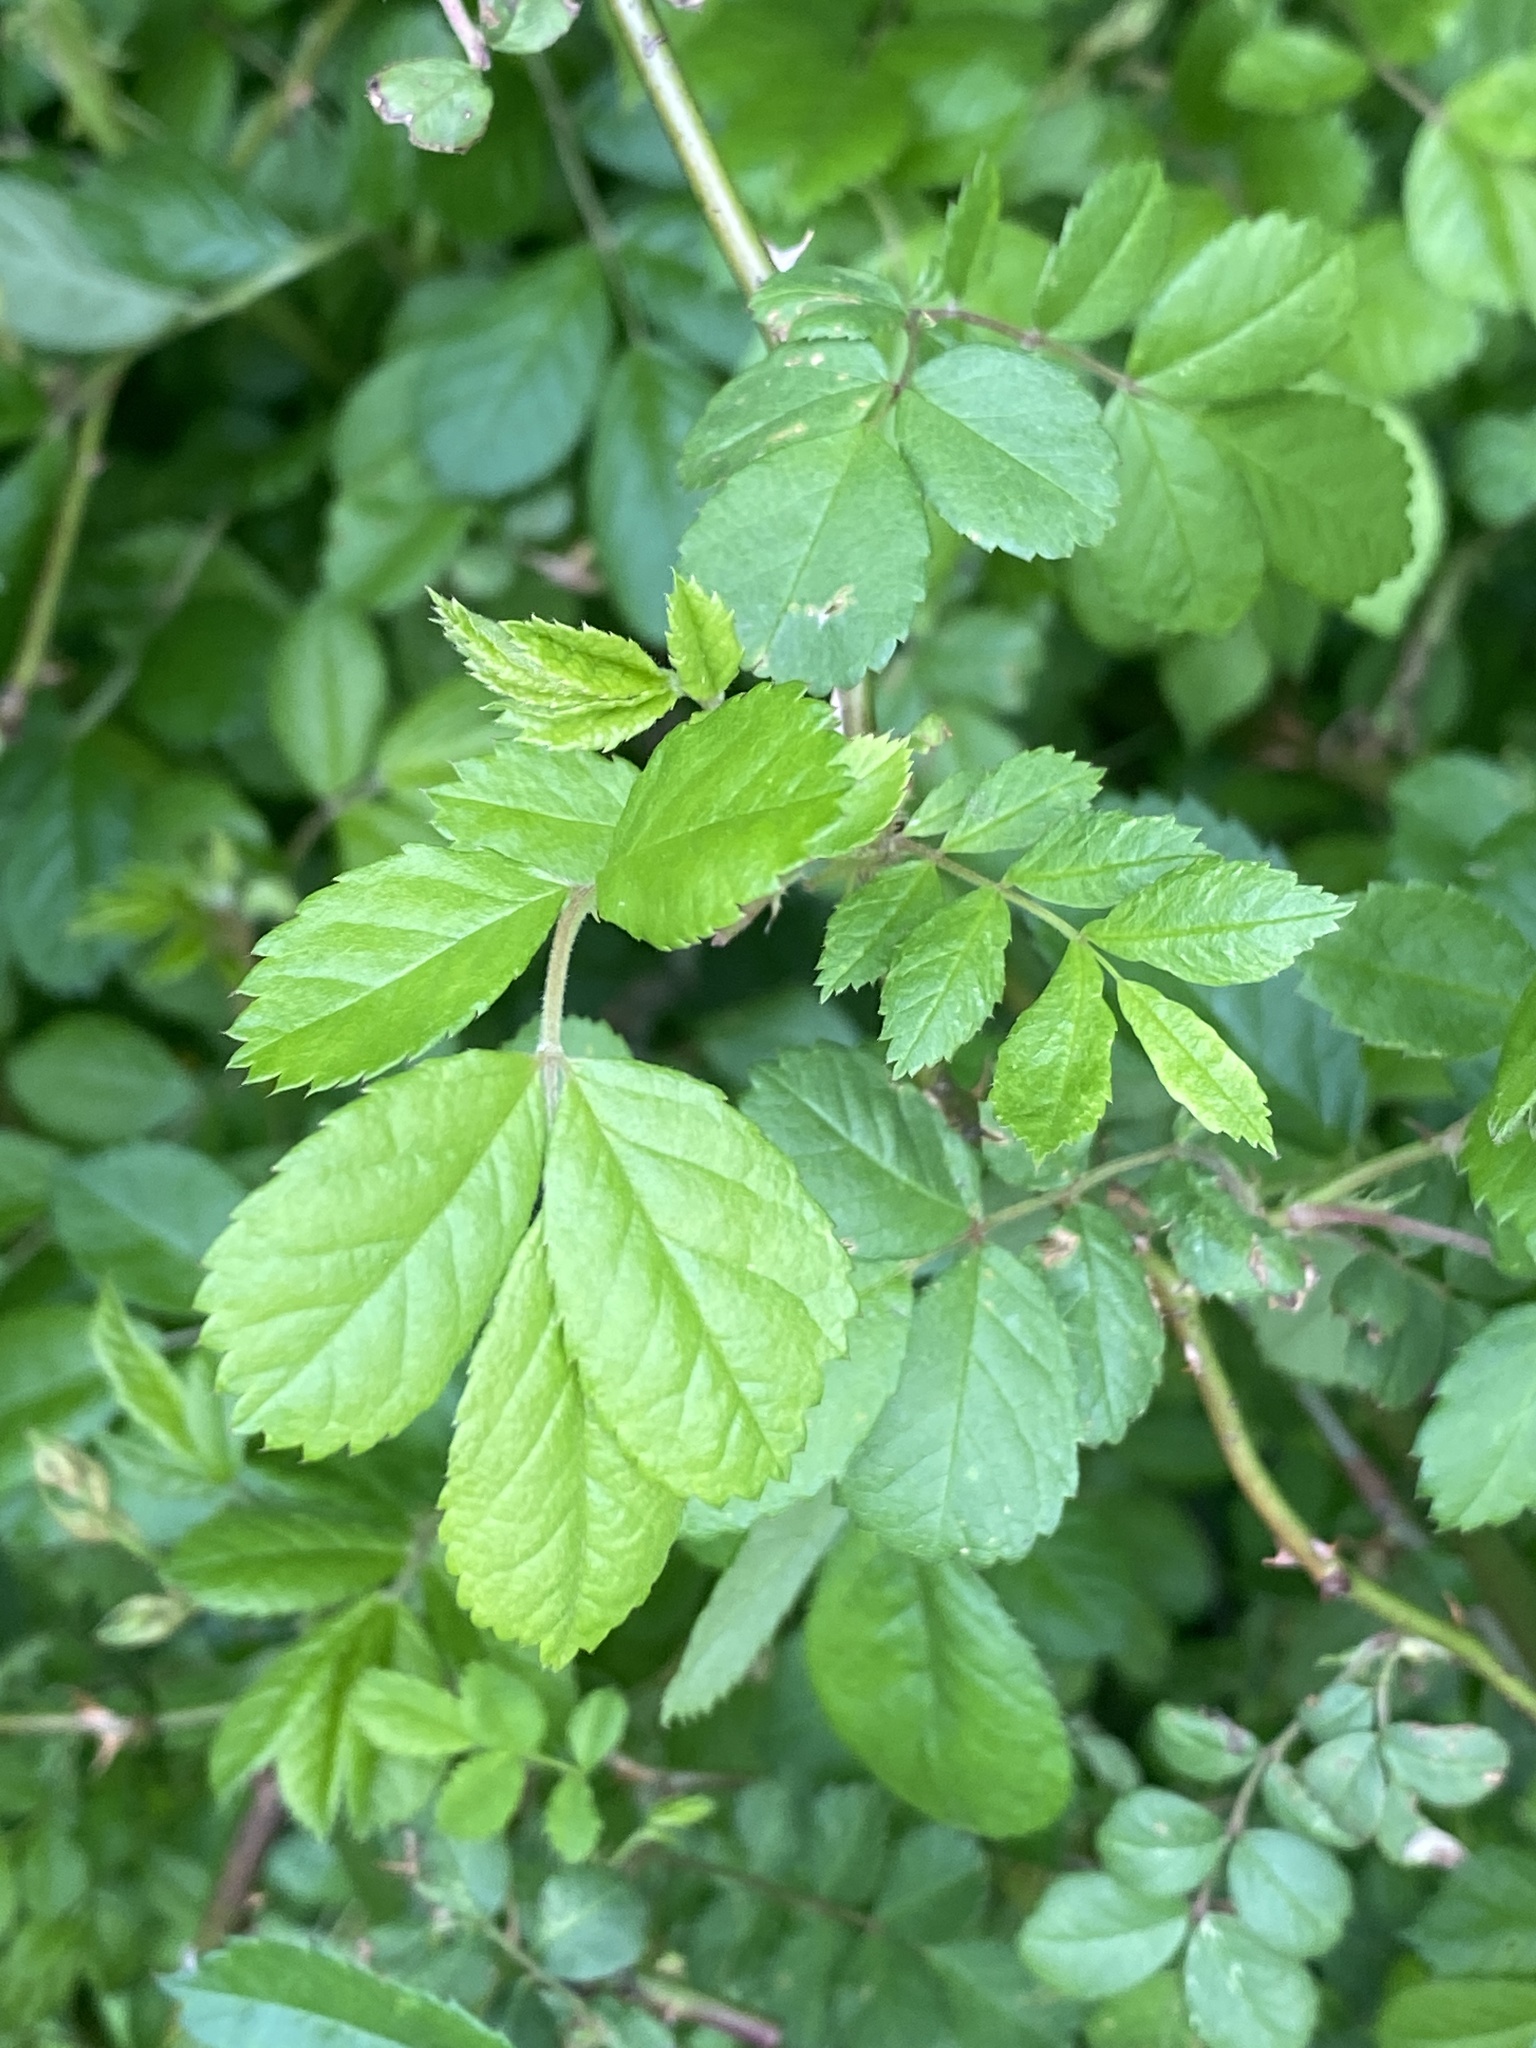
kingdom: Plantae
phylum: Tracheophyta
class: Magnoliopsida
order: Rosales
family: Rosaceae
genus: Rosa
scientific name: Rosa multiflora
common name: Multiflora rose
